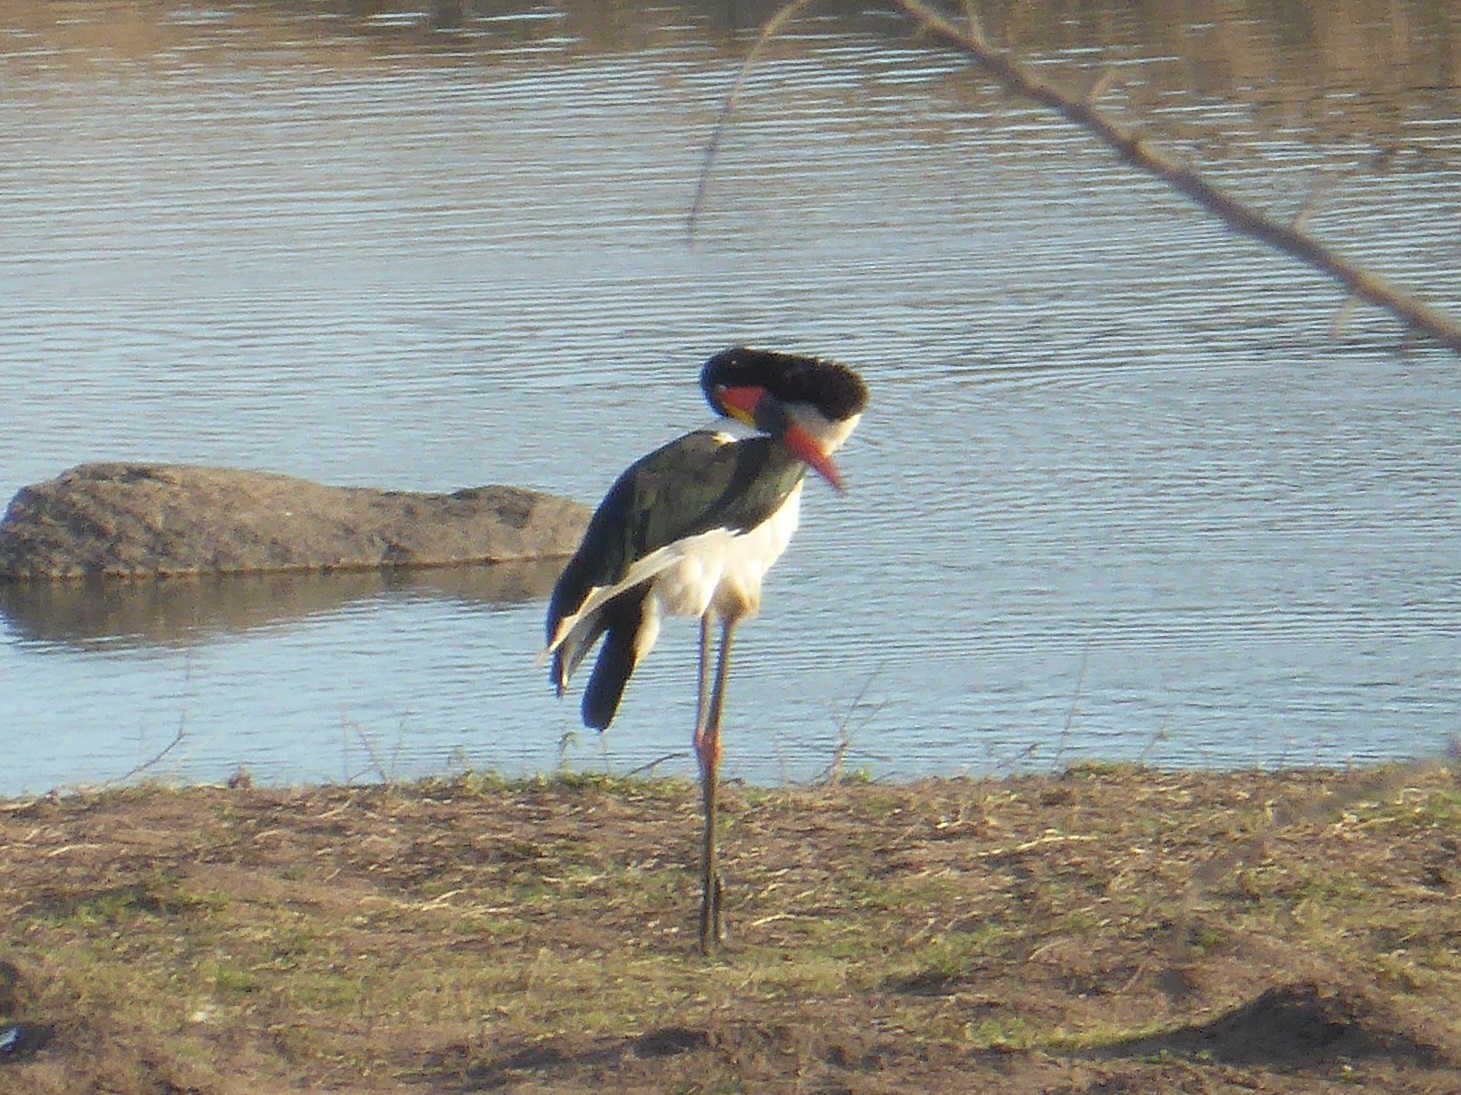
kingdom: Animalia
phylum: Chordata
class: Aves
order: Ciconiiformes
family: Ciconiidae
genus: Ephippiorhynchus
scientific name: Ephippiorhynchus senegalensis
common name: Saddle-billed stork
